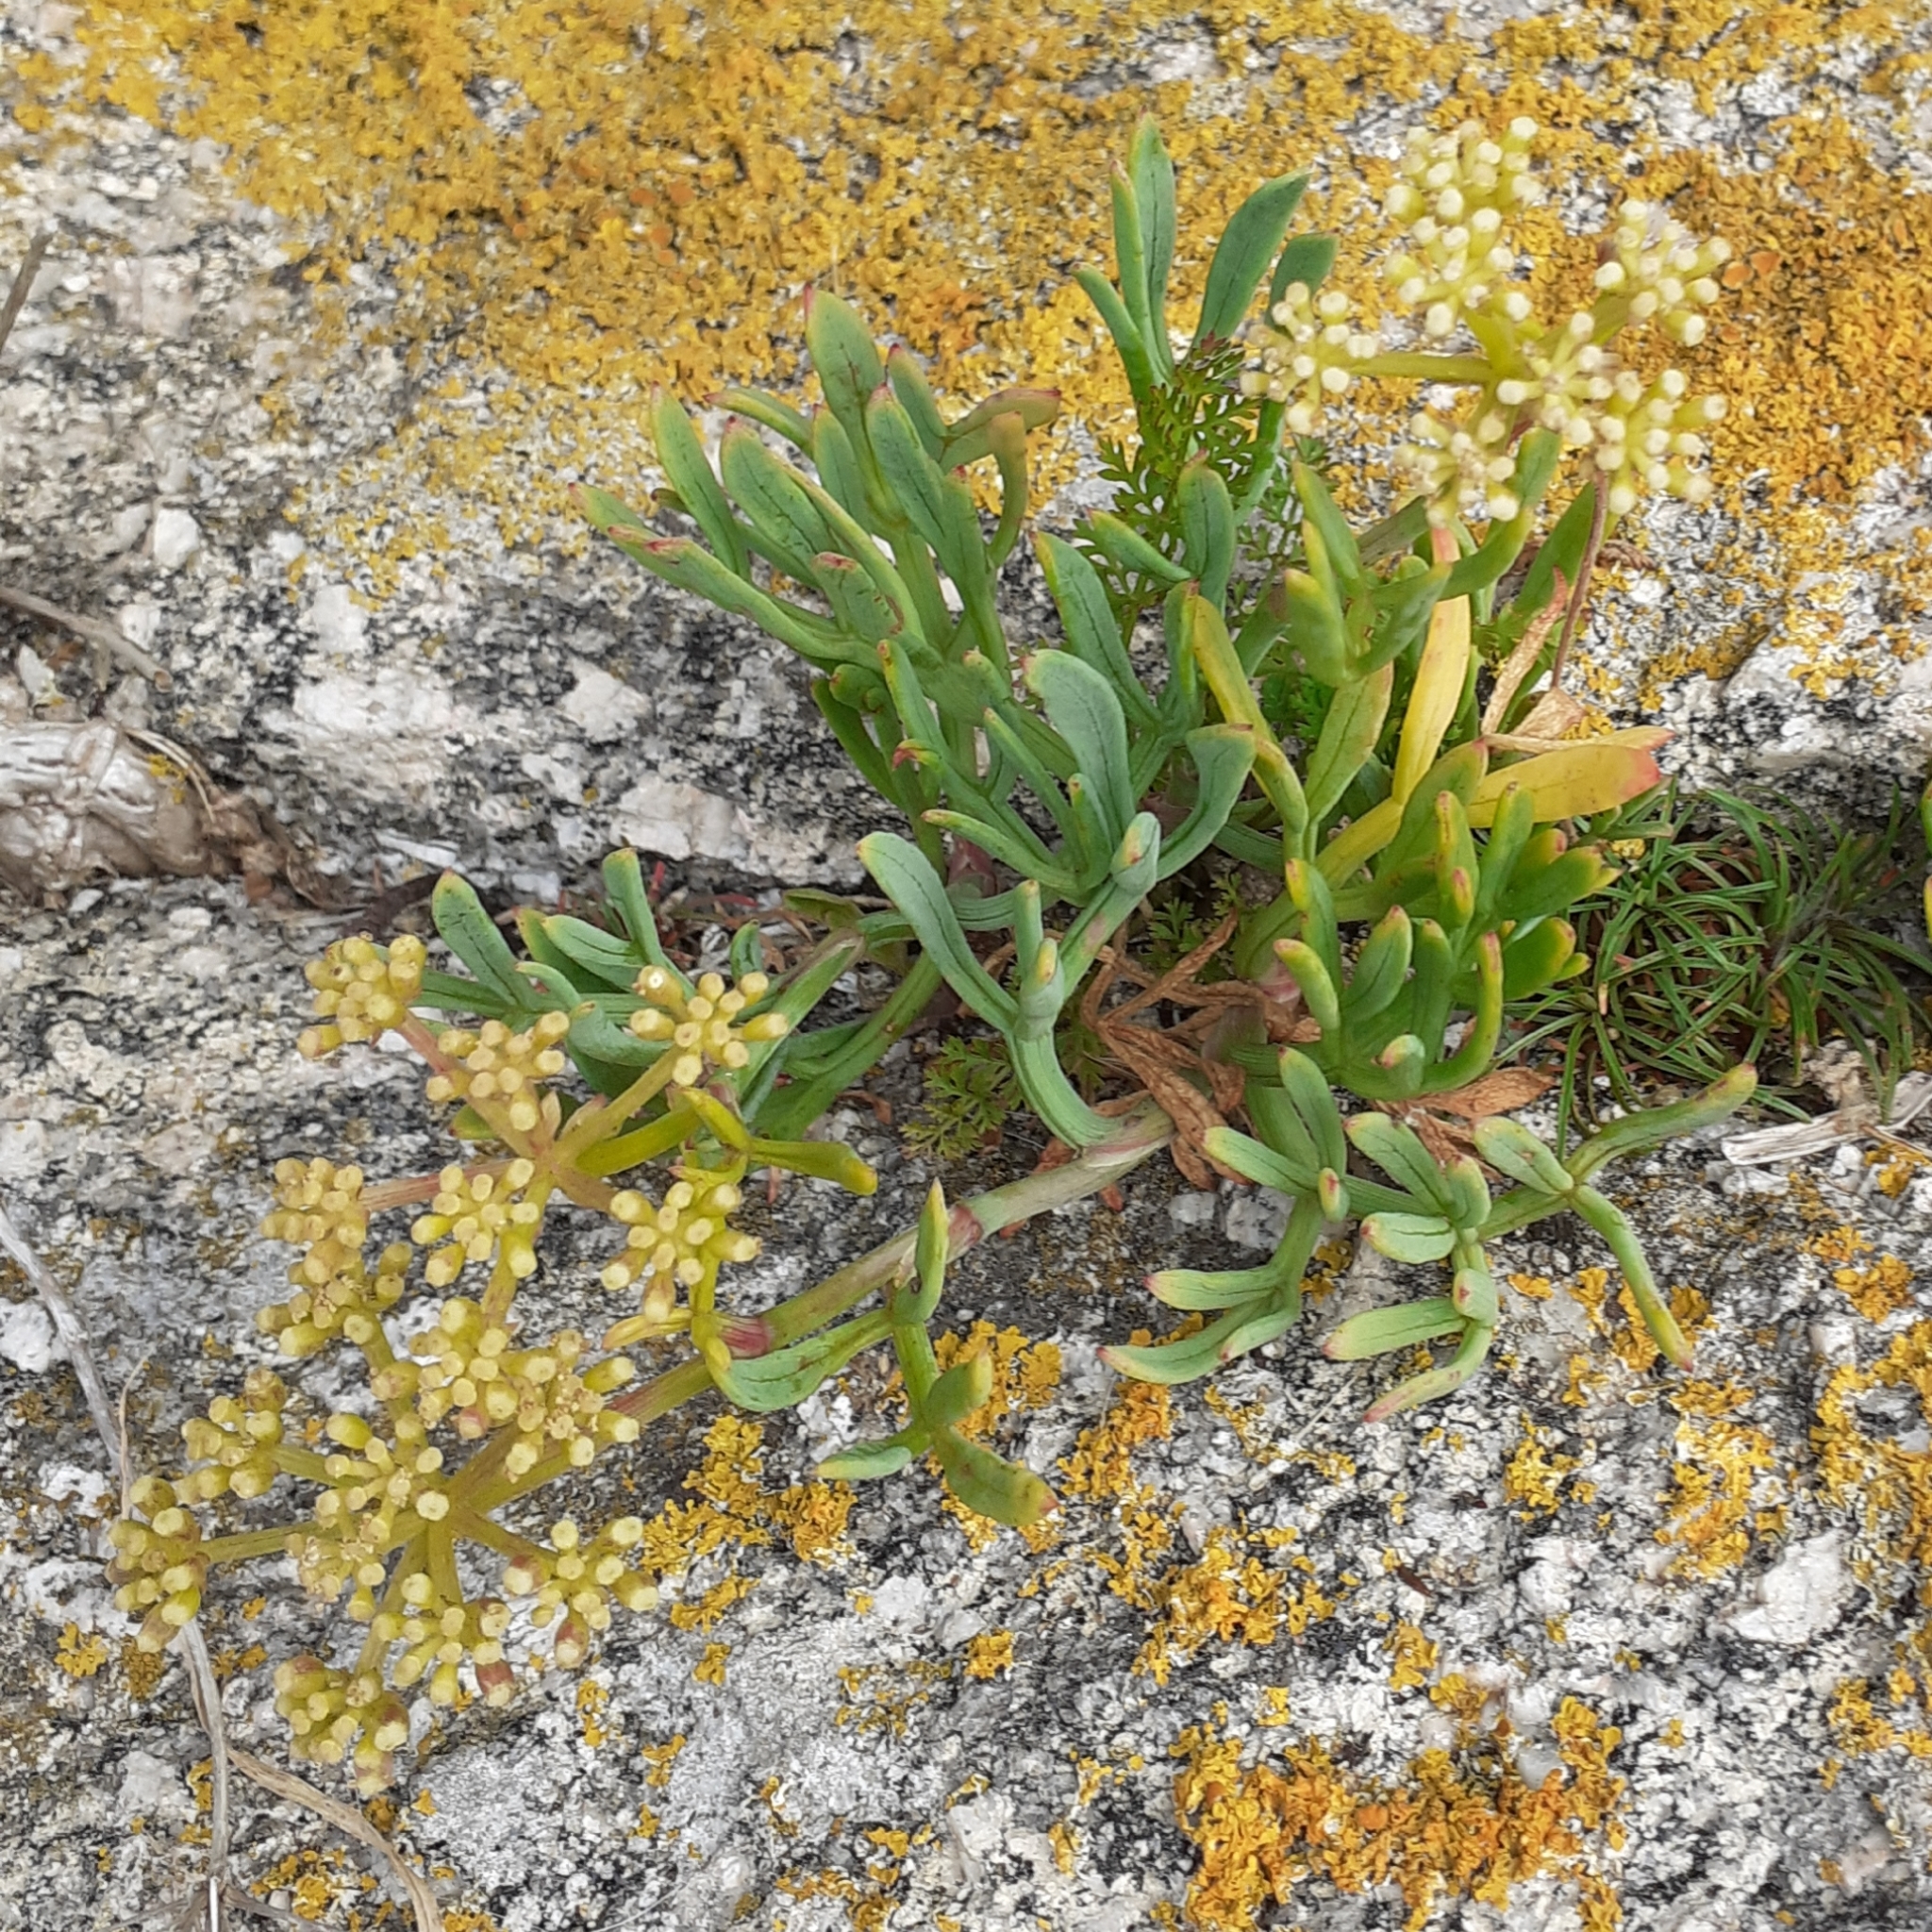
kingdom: Plantae
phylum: Tracheophyta
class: Magnoliopsida
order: Apiales
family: Apiaceae
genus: Crithmum
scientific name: Crithmum maritimum
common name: Rock samphire
